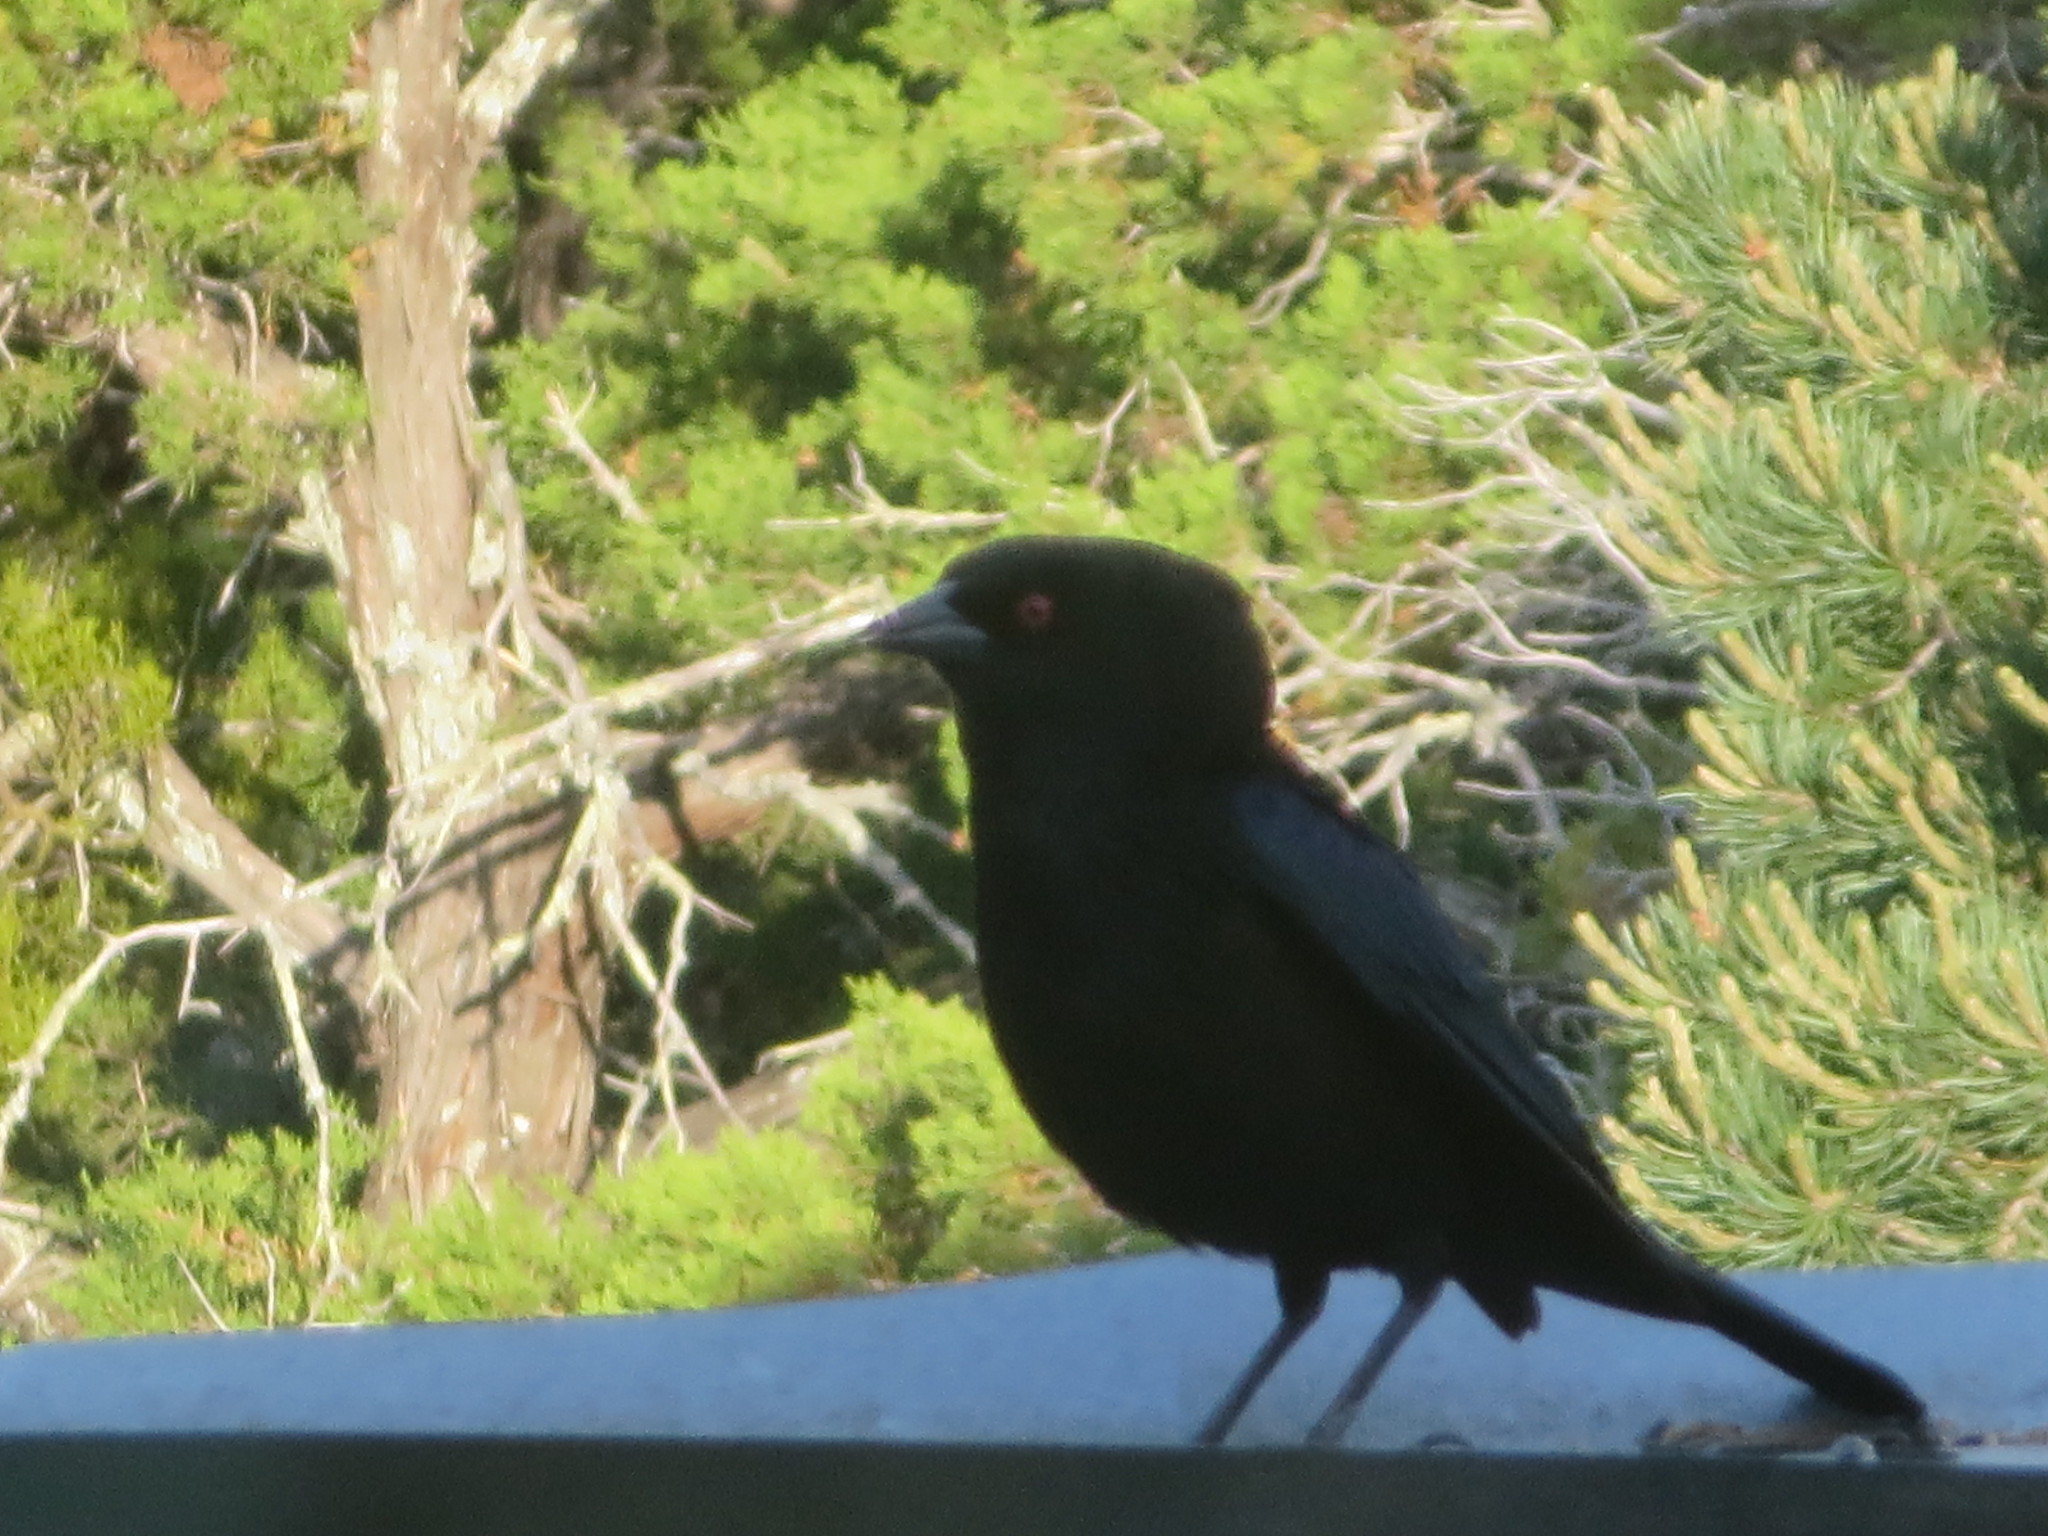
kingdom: Animalia
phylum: Chordata
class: Aves
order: Passeriformes
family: Icteridae
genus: Molothrus
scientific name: Molothrus aeneus
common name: Bronzed cowbird
